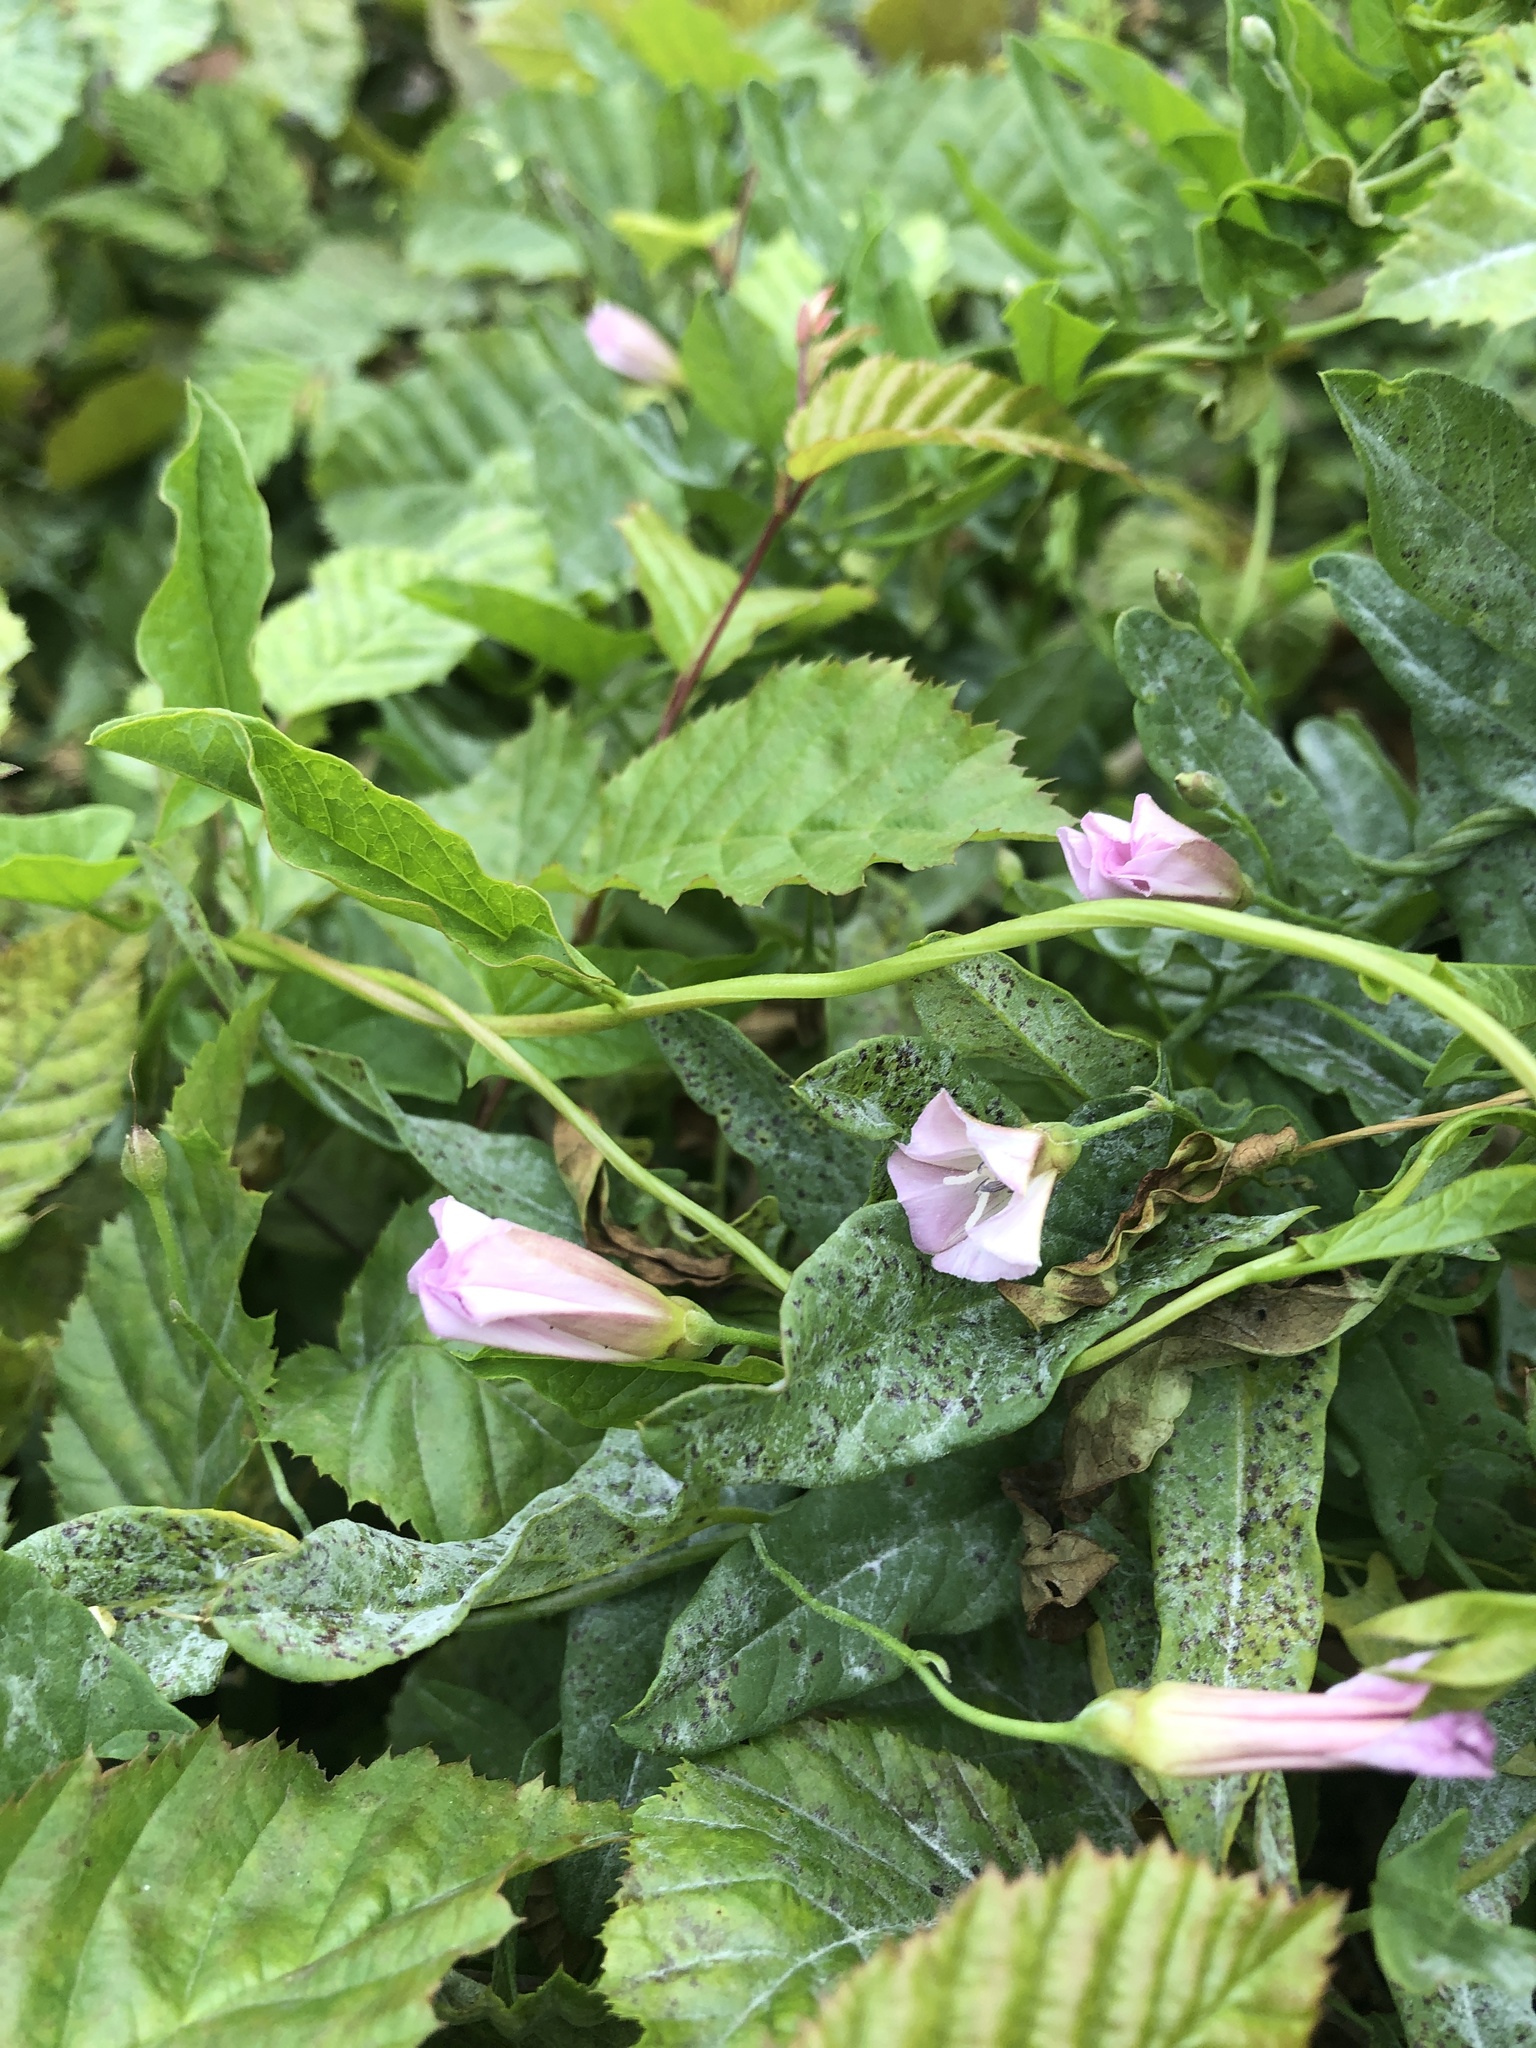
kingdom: Plantae
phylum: Tracheophyta
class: Magnoliopsida
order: Solanales
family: Convolvulaceae
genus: Convolvulus
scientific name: Convolvulus arvensis
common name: Field bindweed
